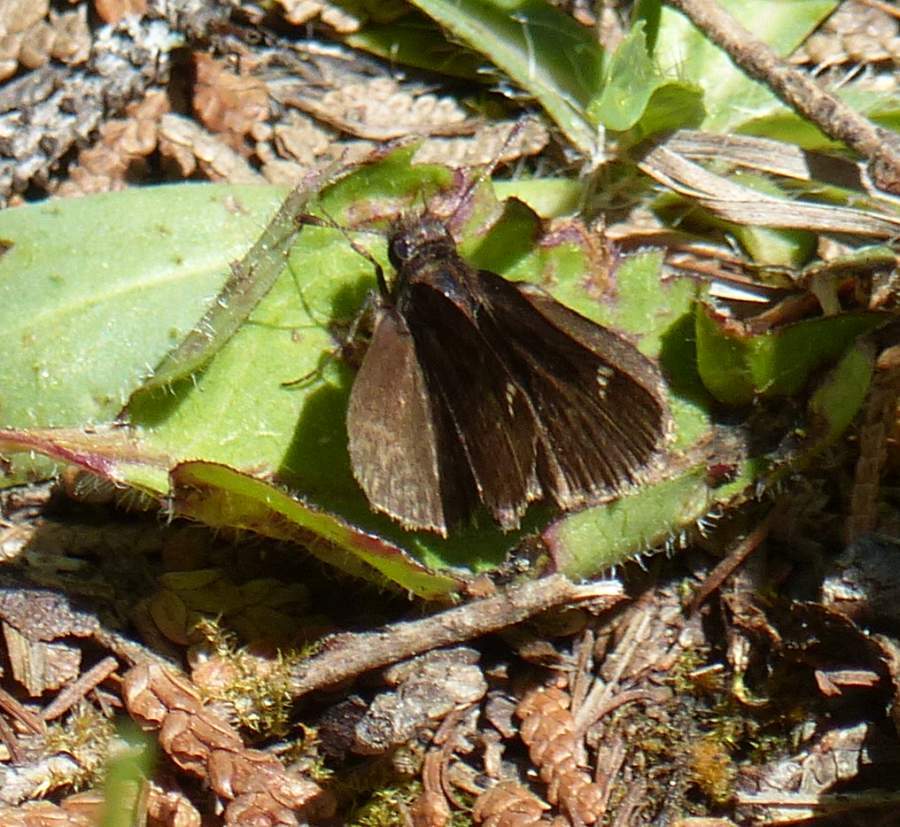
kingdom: Animalia
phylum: Arthropoda
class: Insecta
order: Lepidoptera
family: Hesperiidae
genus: Mastor
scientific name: Mastor vialis
